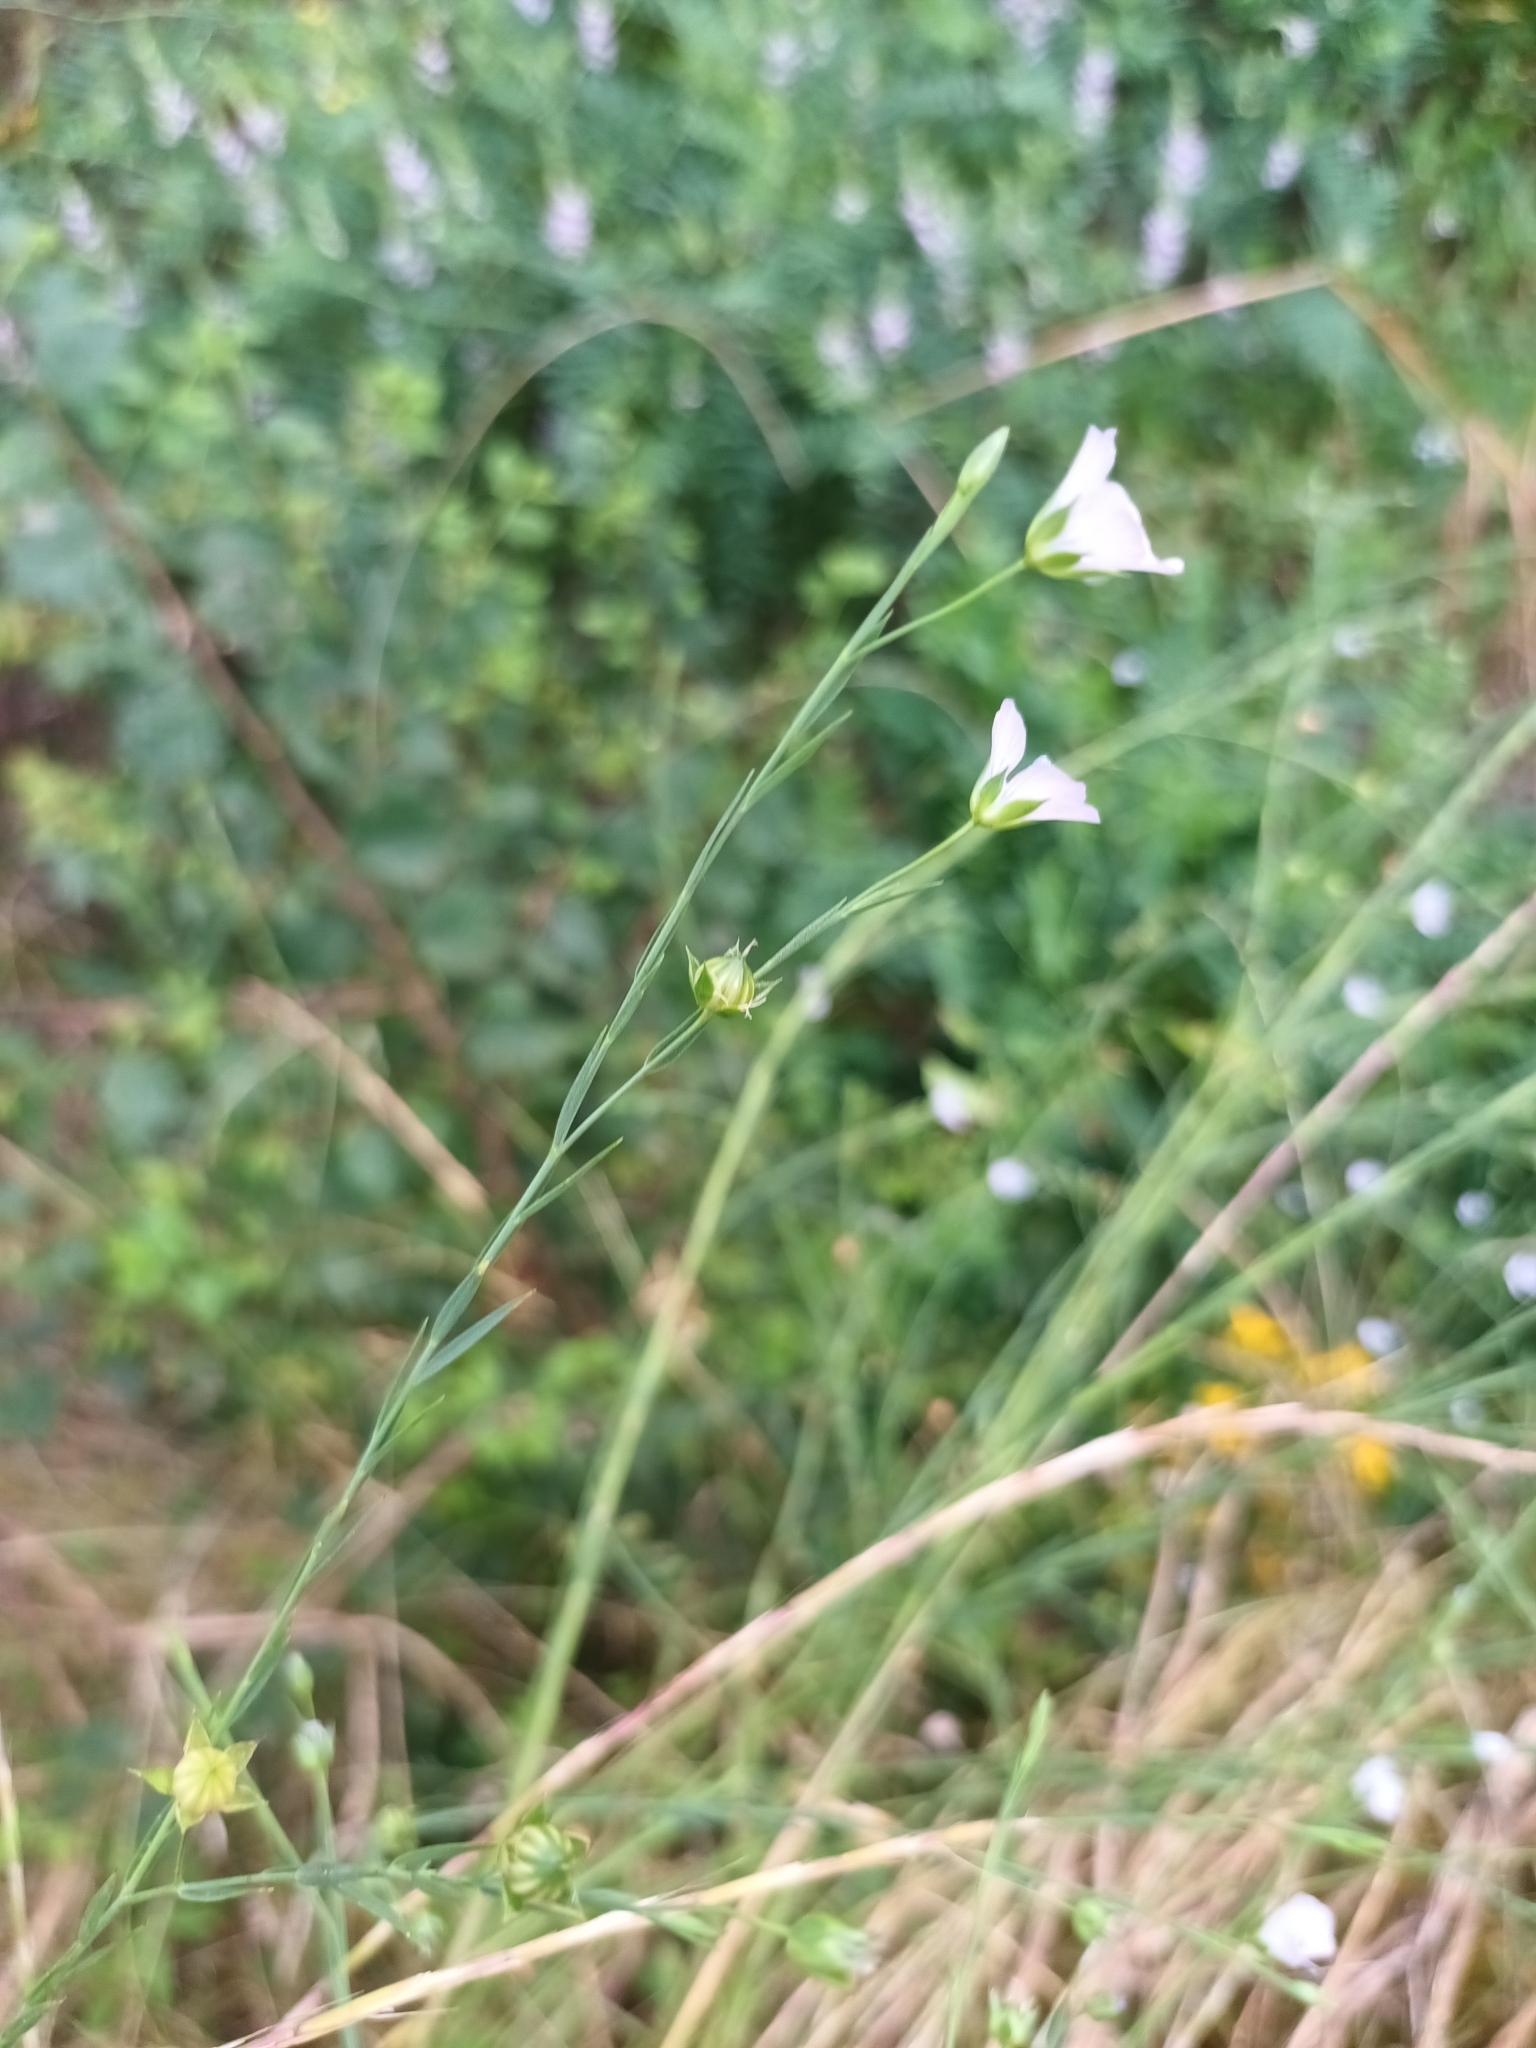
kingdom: Plantae
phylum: Tracheophyta
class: Magnoliopsida
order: Malpighiales
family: Linaceae
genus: Linum
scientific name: Linum bienne
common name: Pale flax
